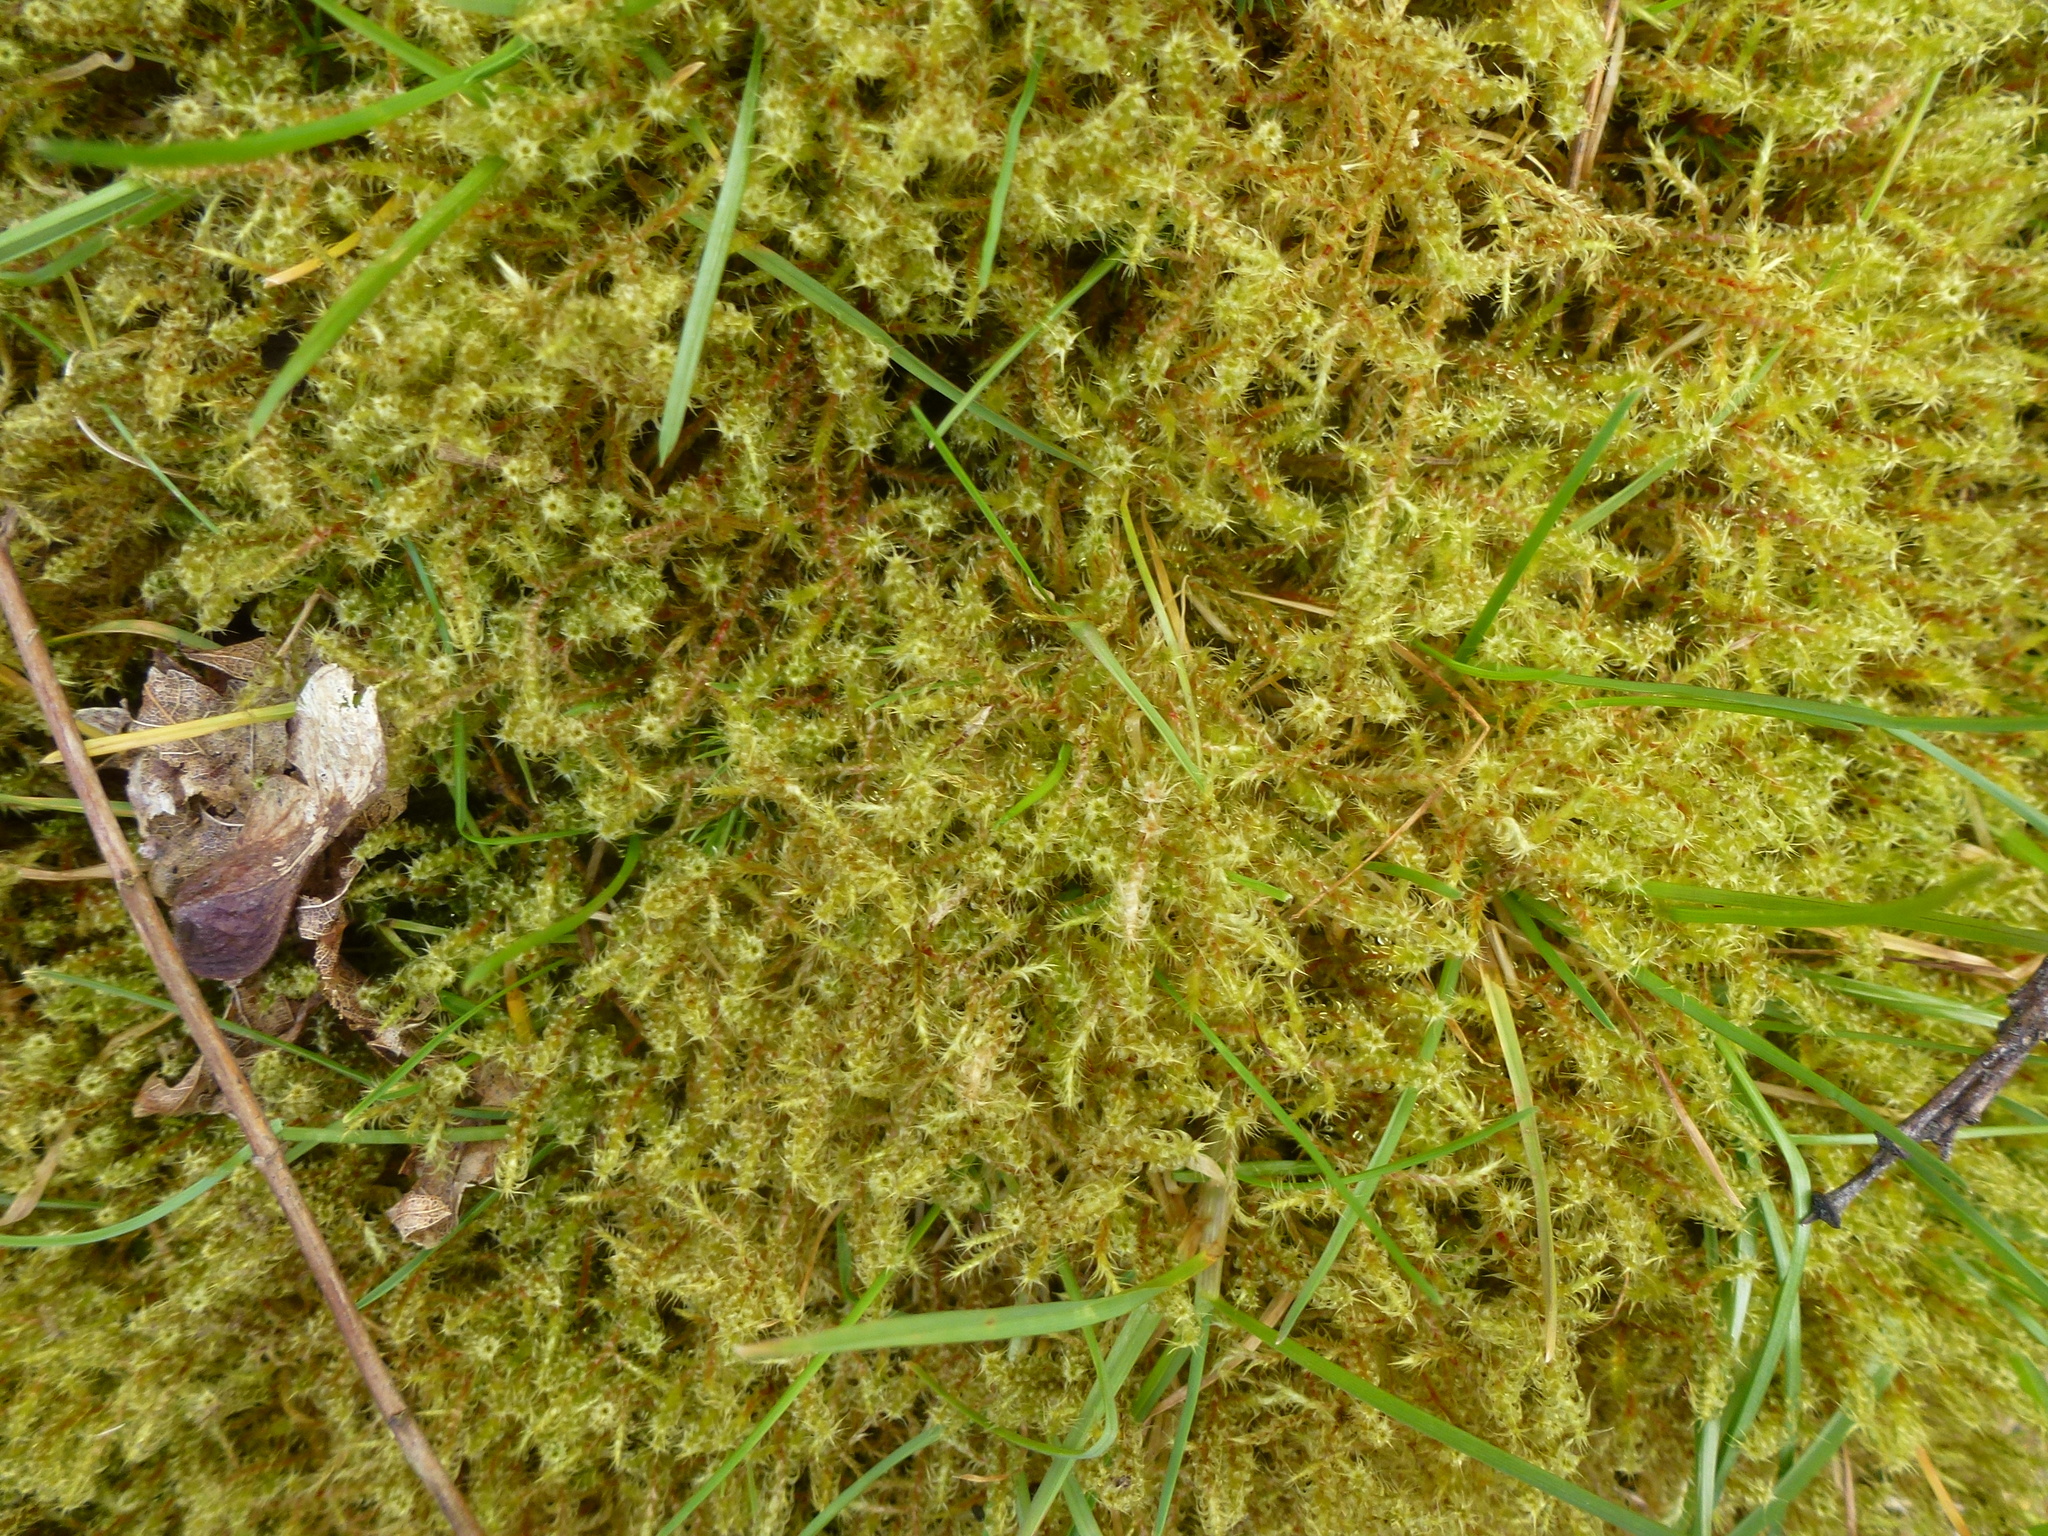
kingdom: Plantae
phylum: Bryophyta
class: Bryopsida
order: Hypnales
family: Hylocomiaceae
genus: Rhytidiadelphus
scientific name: Rhytidiadelphus squarrosus
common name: Springy turf-moss
